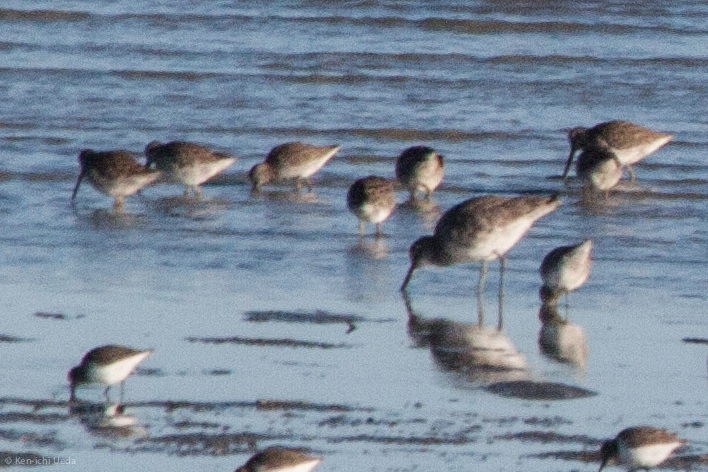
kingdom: Animalia
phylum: Chordata
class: Aves
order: Charadriiformes
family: Scolopacidae
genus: Limnodromus
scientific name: Limnodromus
